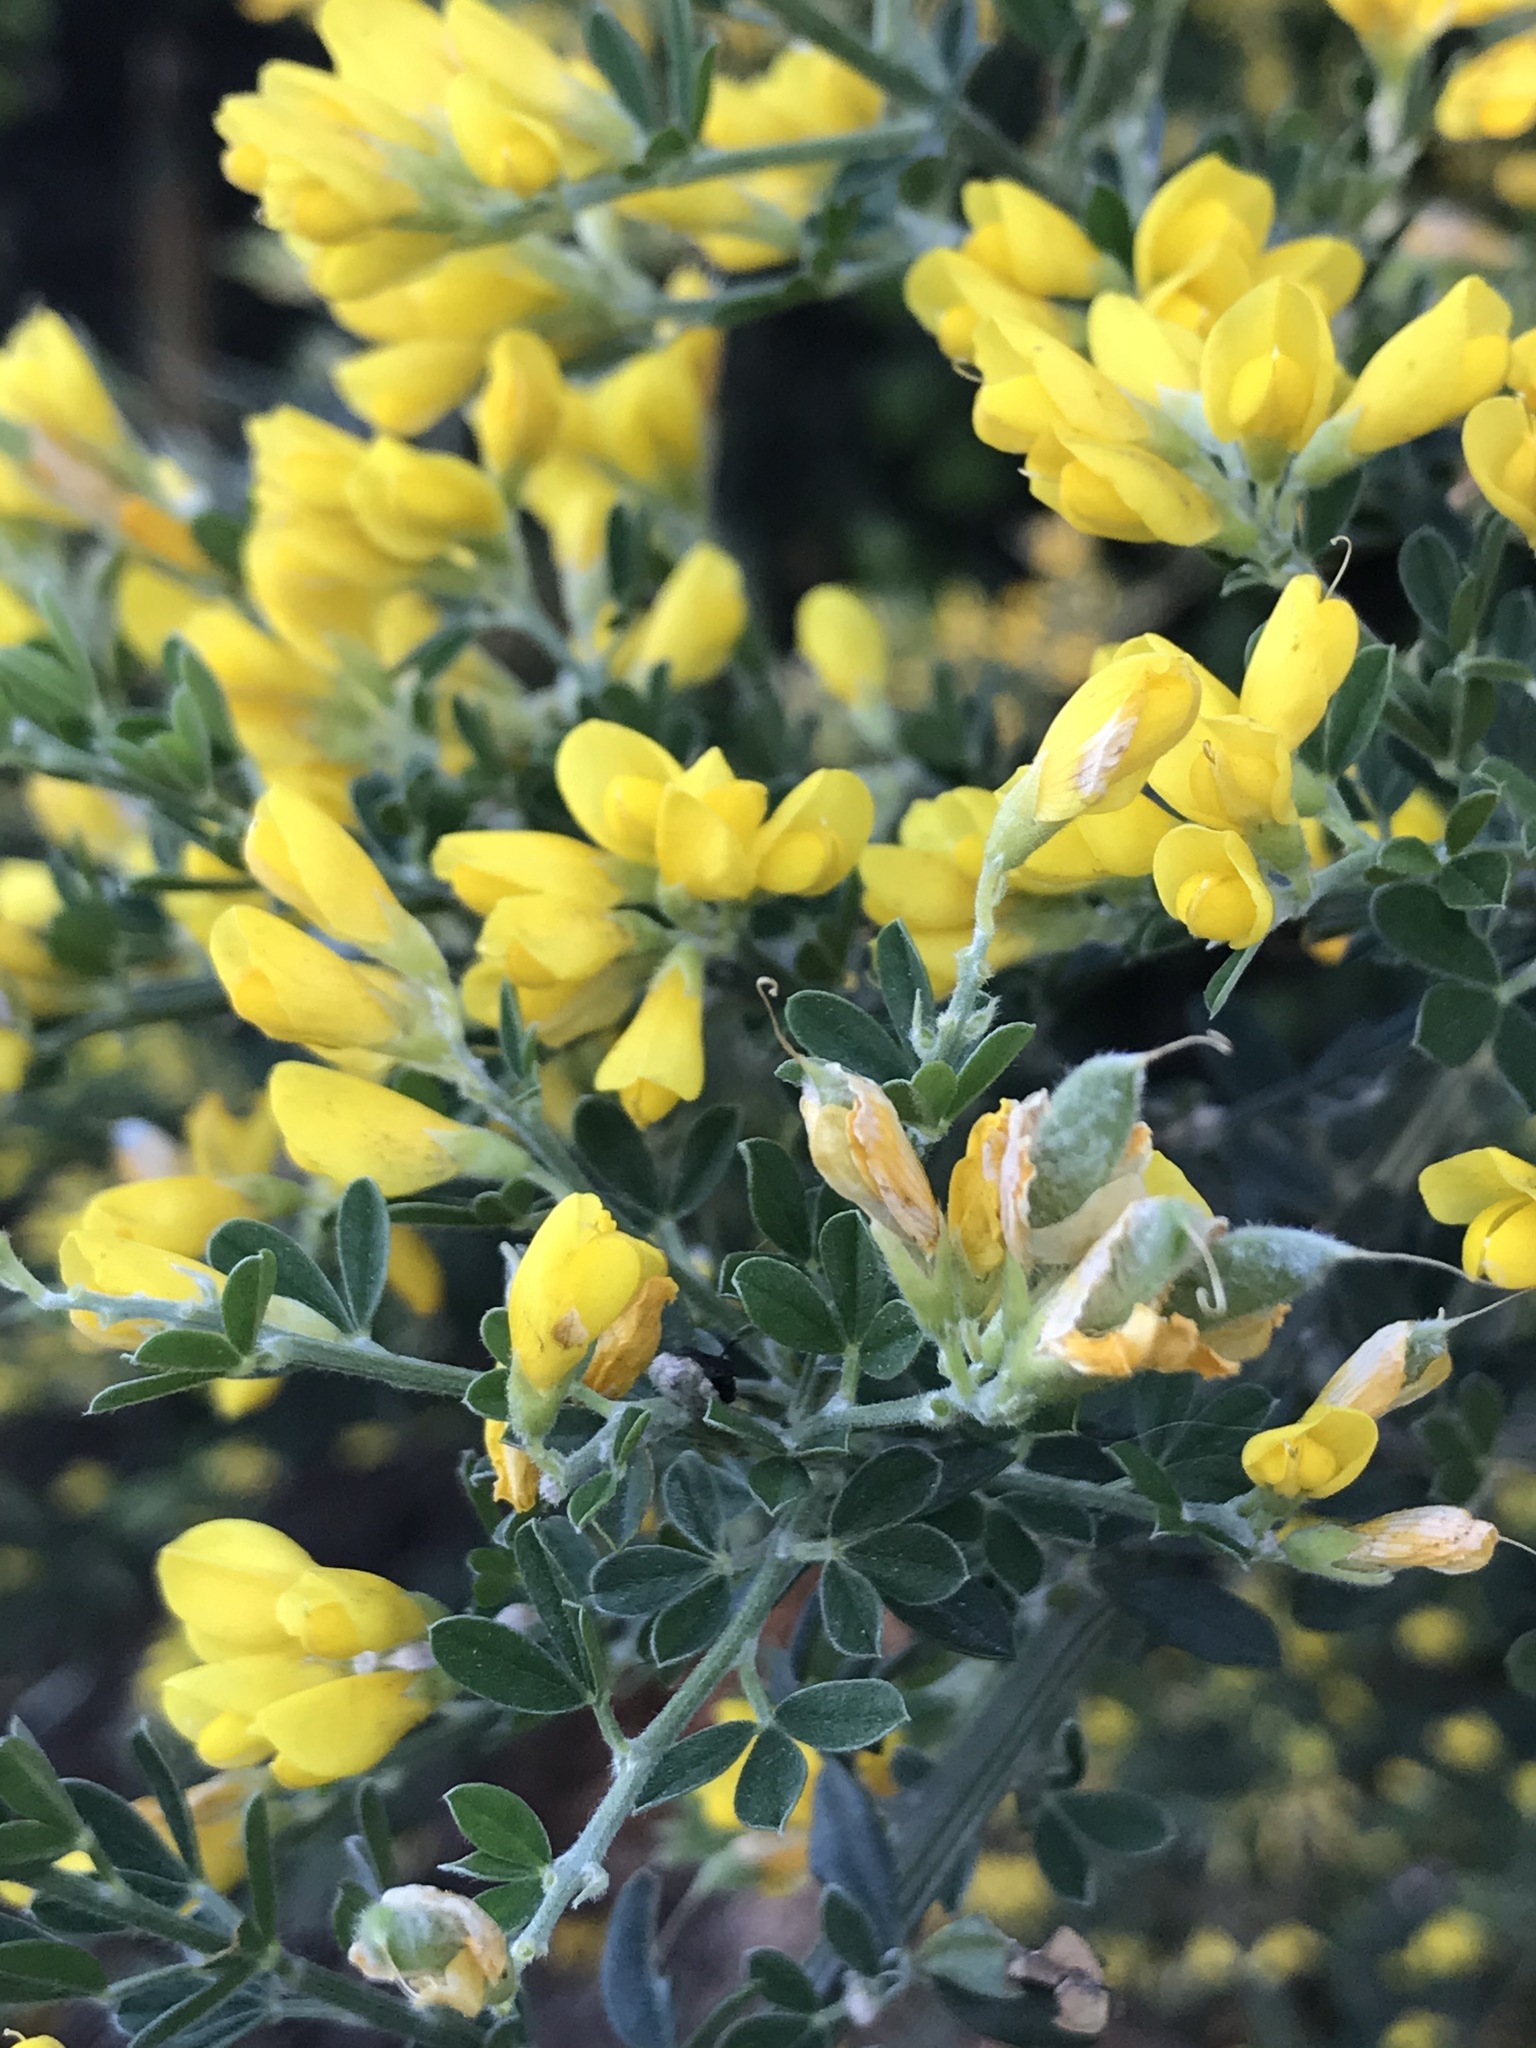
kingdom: Plantae
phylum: Tracheophyta
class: Magnoliopsida
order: Fabales
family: Fabaceae
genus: Genista
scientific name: Genista monspessulana
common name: Montpellier broom
